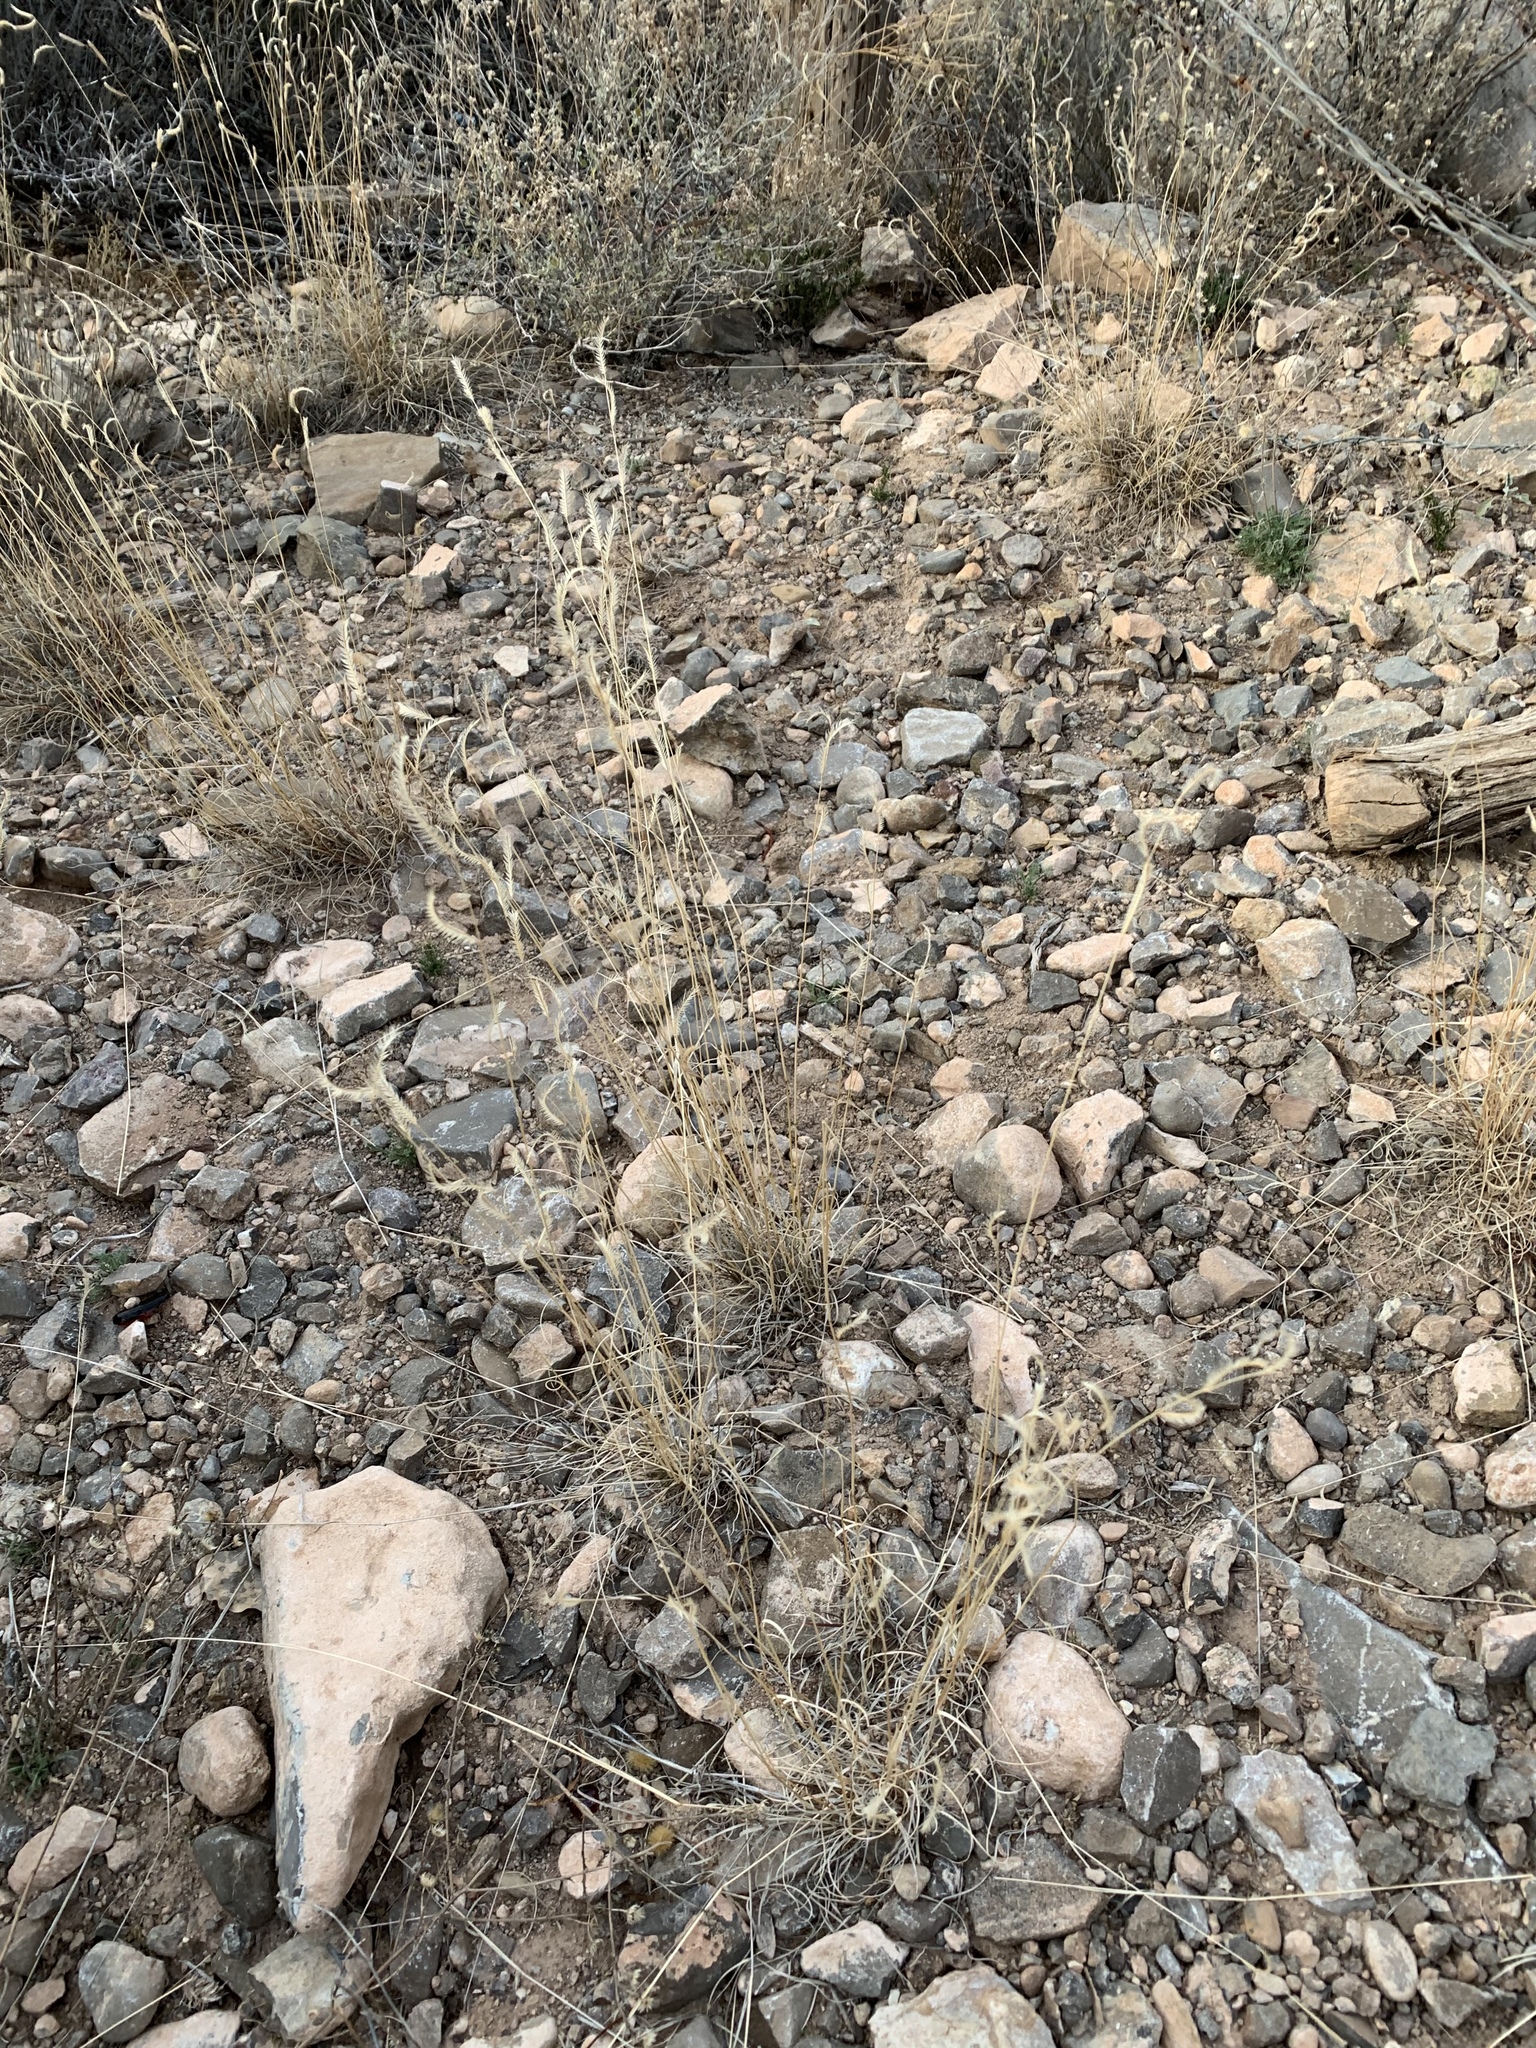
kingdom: Plantae
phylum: Tracheophyta
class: Liliopsida
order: Poales
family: Poaceae
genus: Bouteloua
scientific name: Bouteloua gracilis
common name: Blue grama
